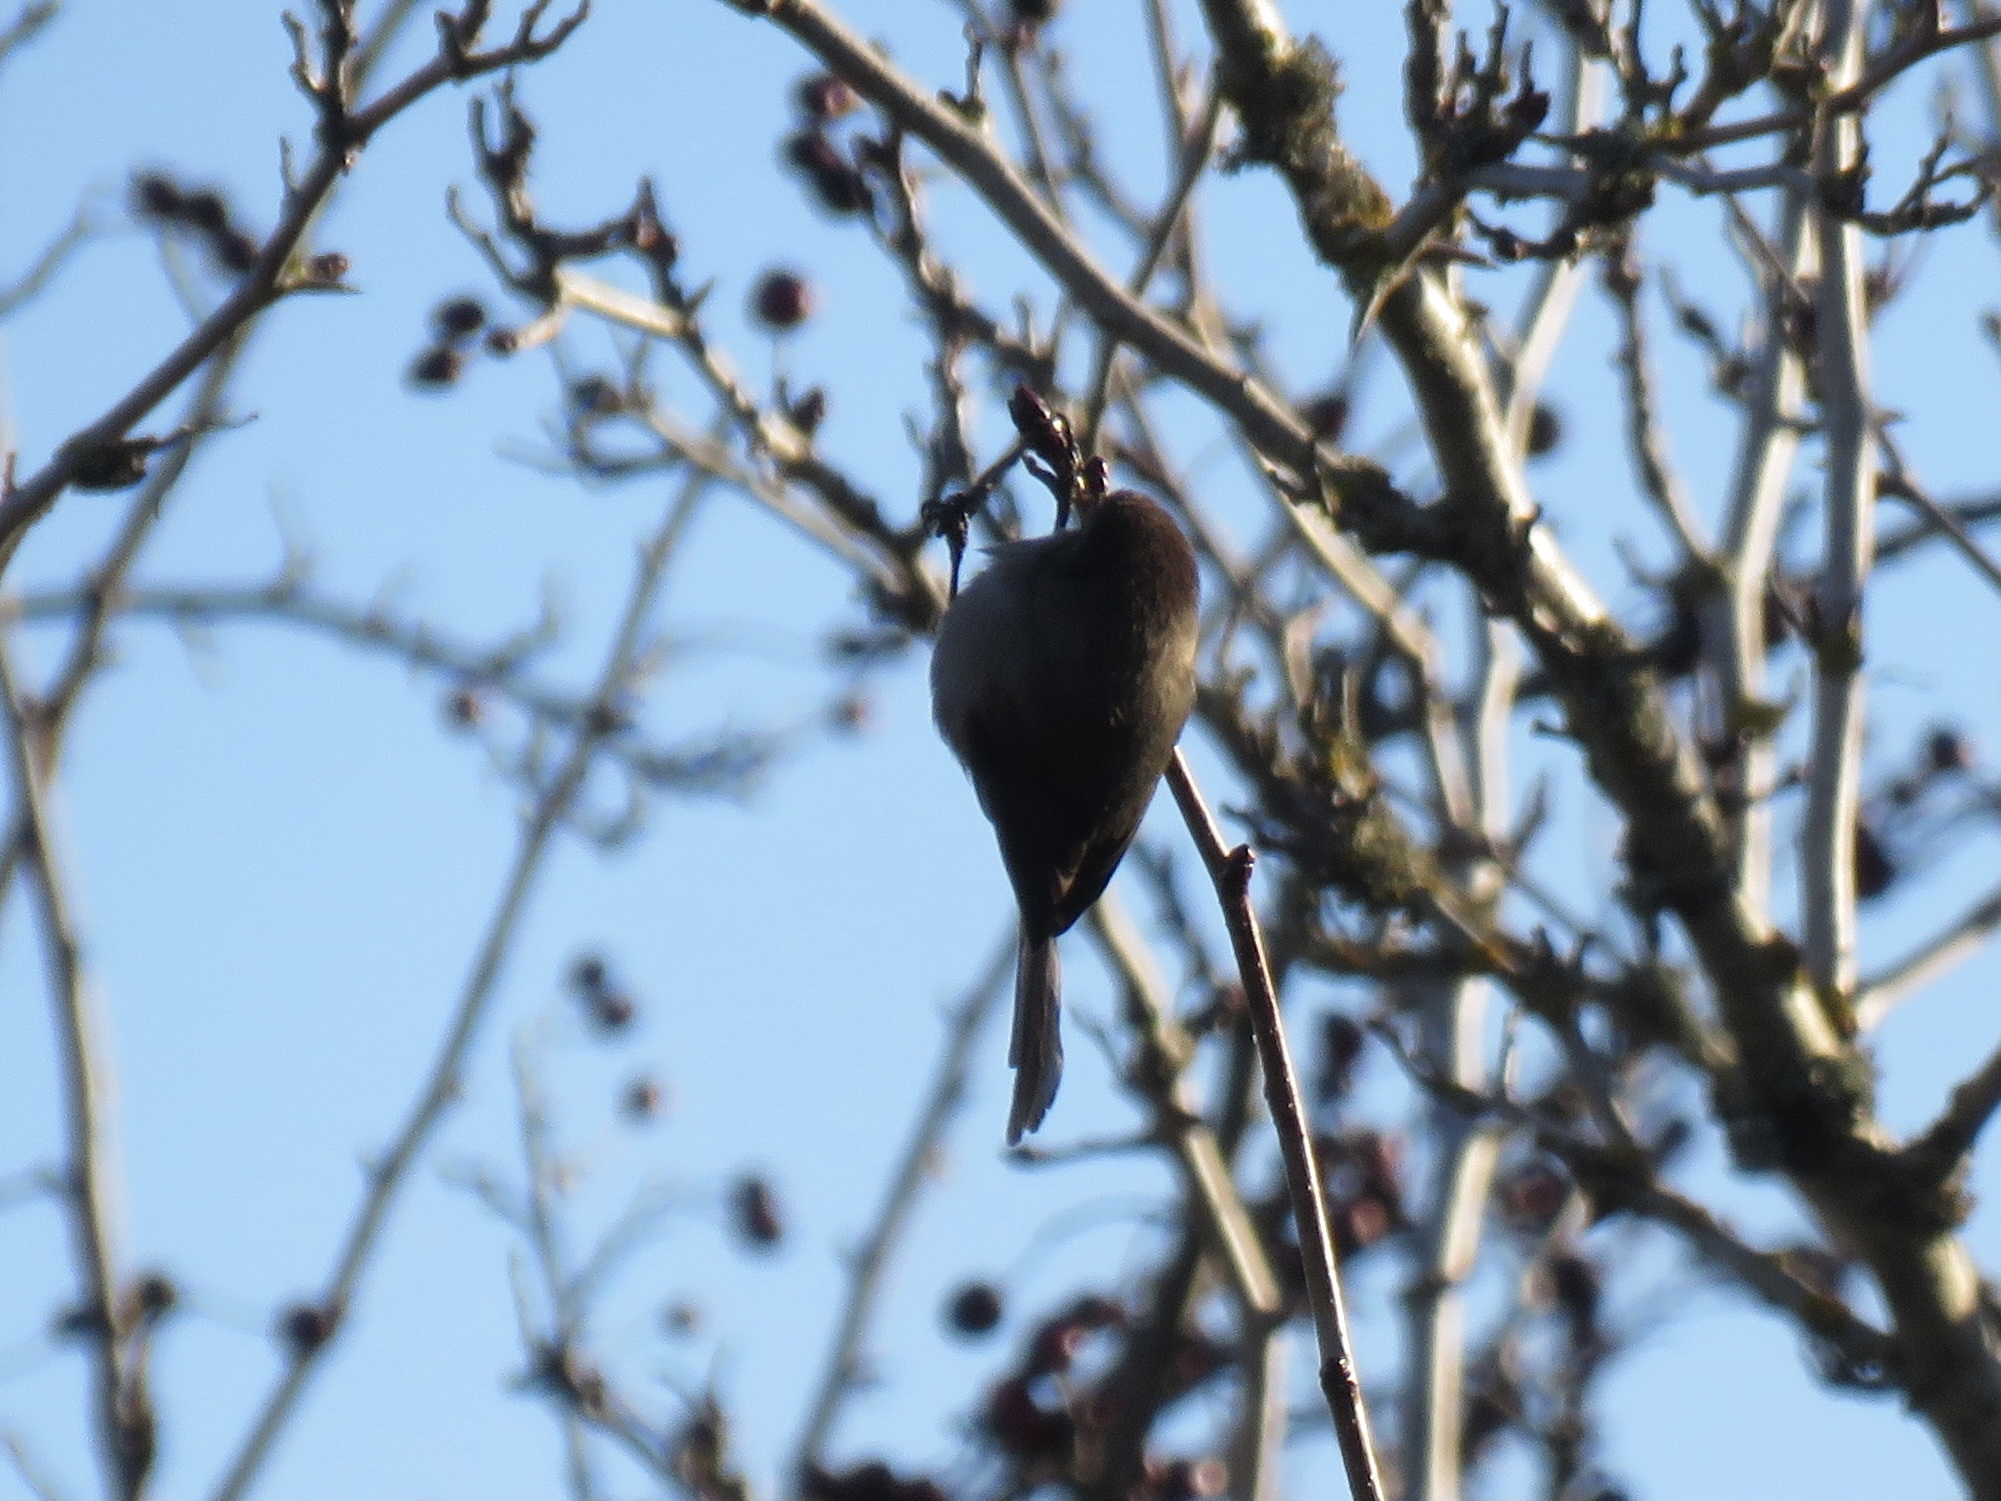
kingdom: Animalia
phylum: Chordata
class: Aves
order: Passeriformes
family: Aegithalidae
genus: Psaltriparus
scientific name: Psaltriparus minimus
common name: American bushtit
